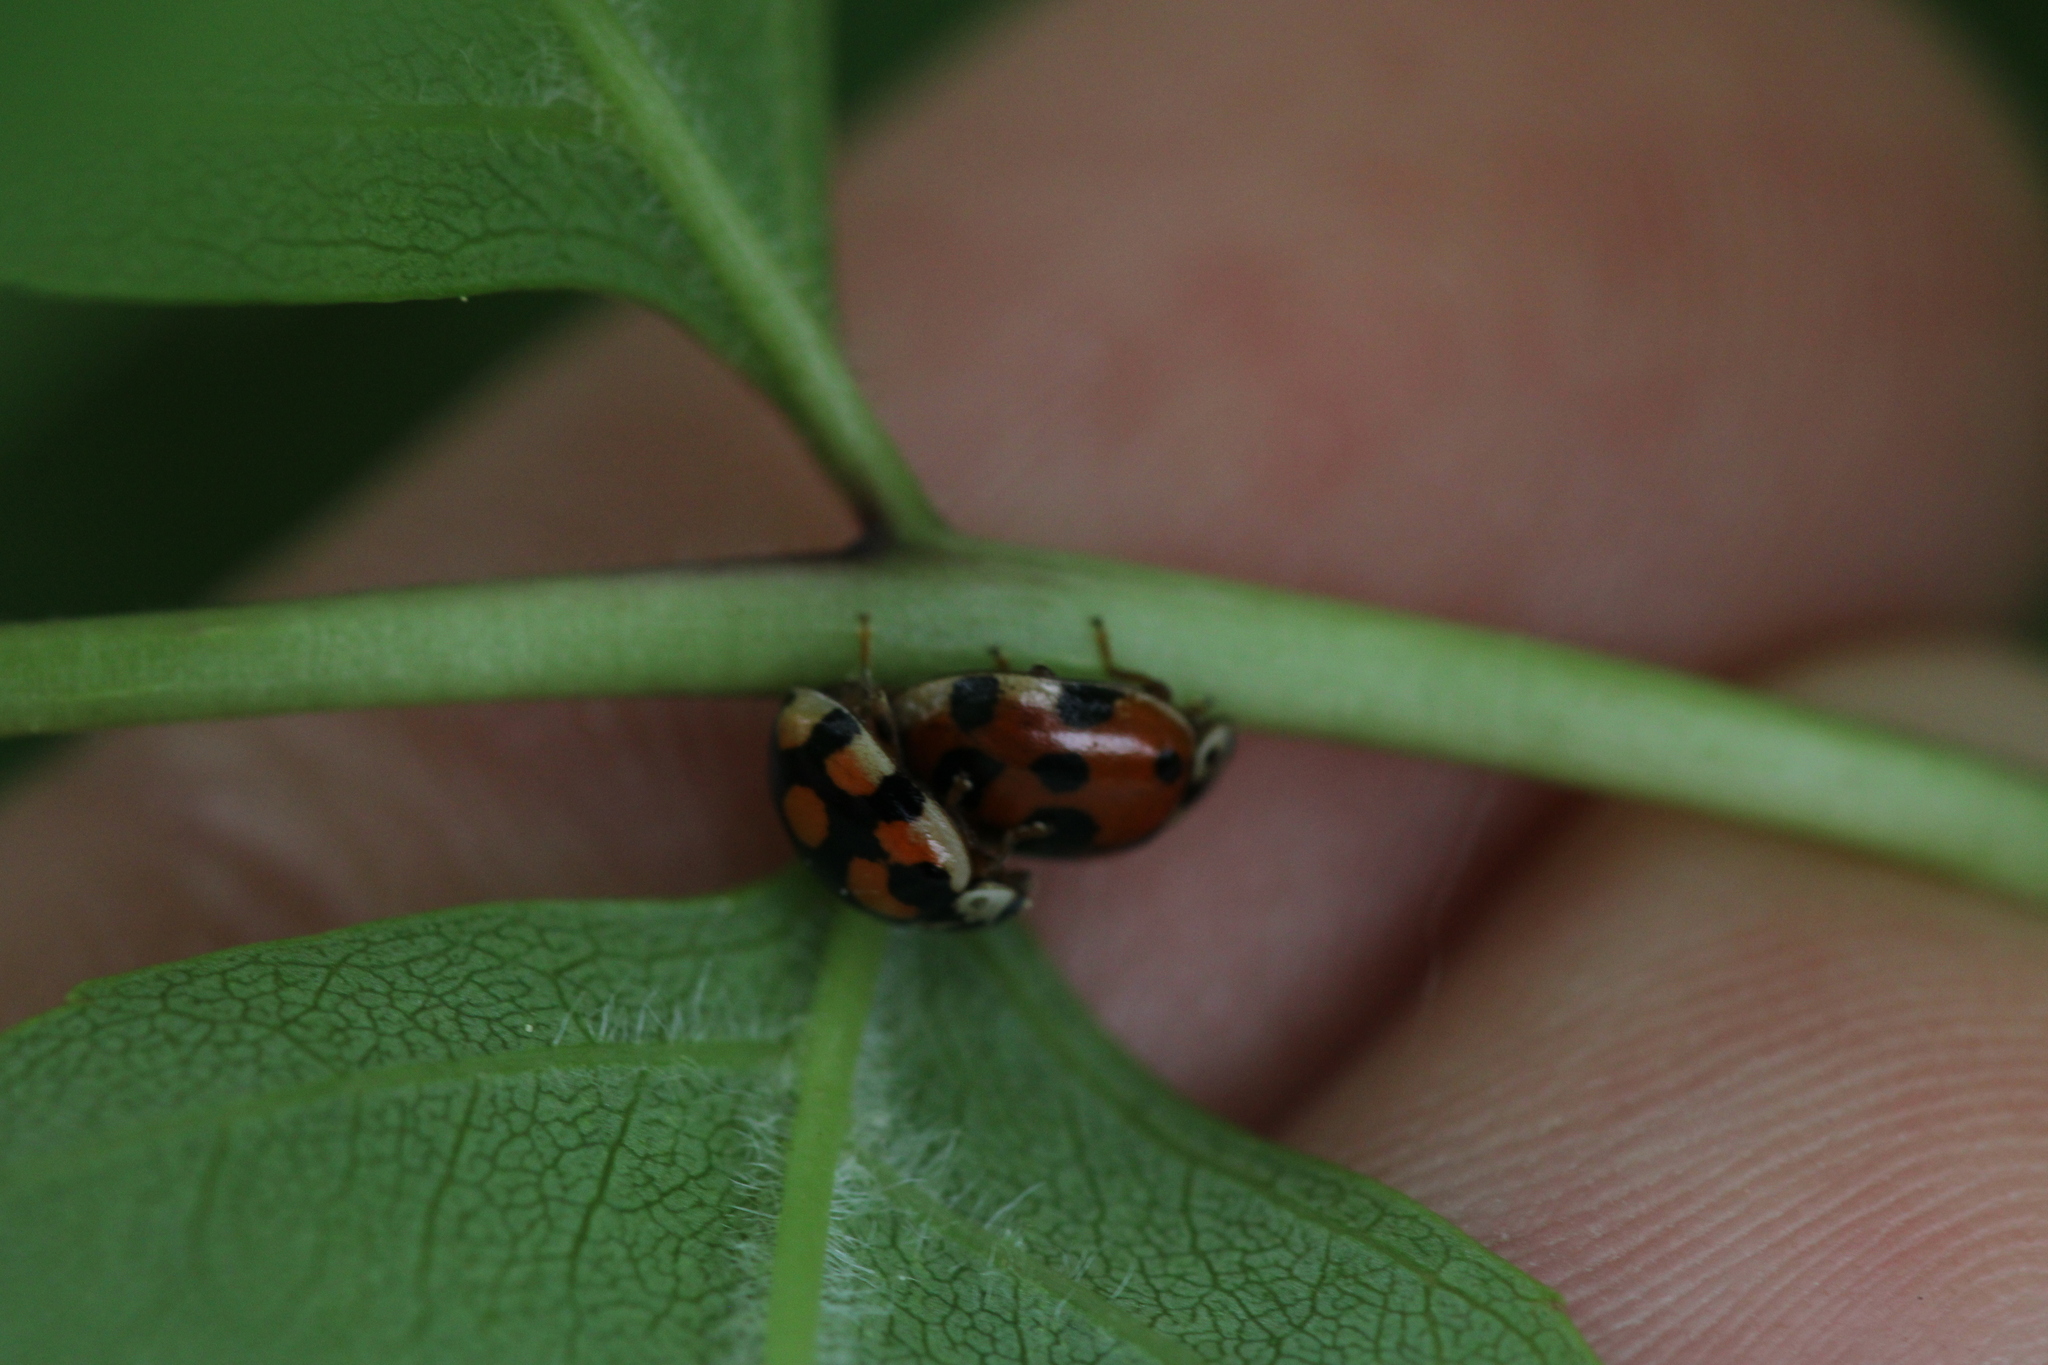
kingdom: Animalia
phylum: Arthropoda
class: Insecta
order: Coleoptera
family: Coccinellidae
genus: Adalia
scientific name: Adalia decempunctata
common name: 10-spot ladybird
